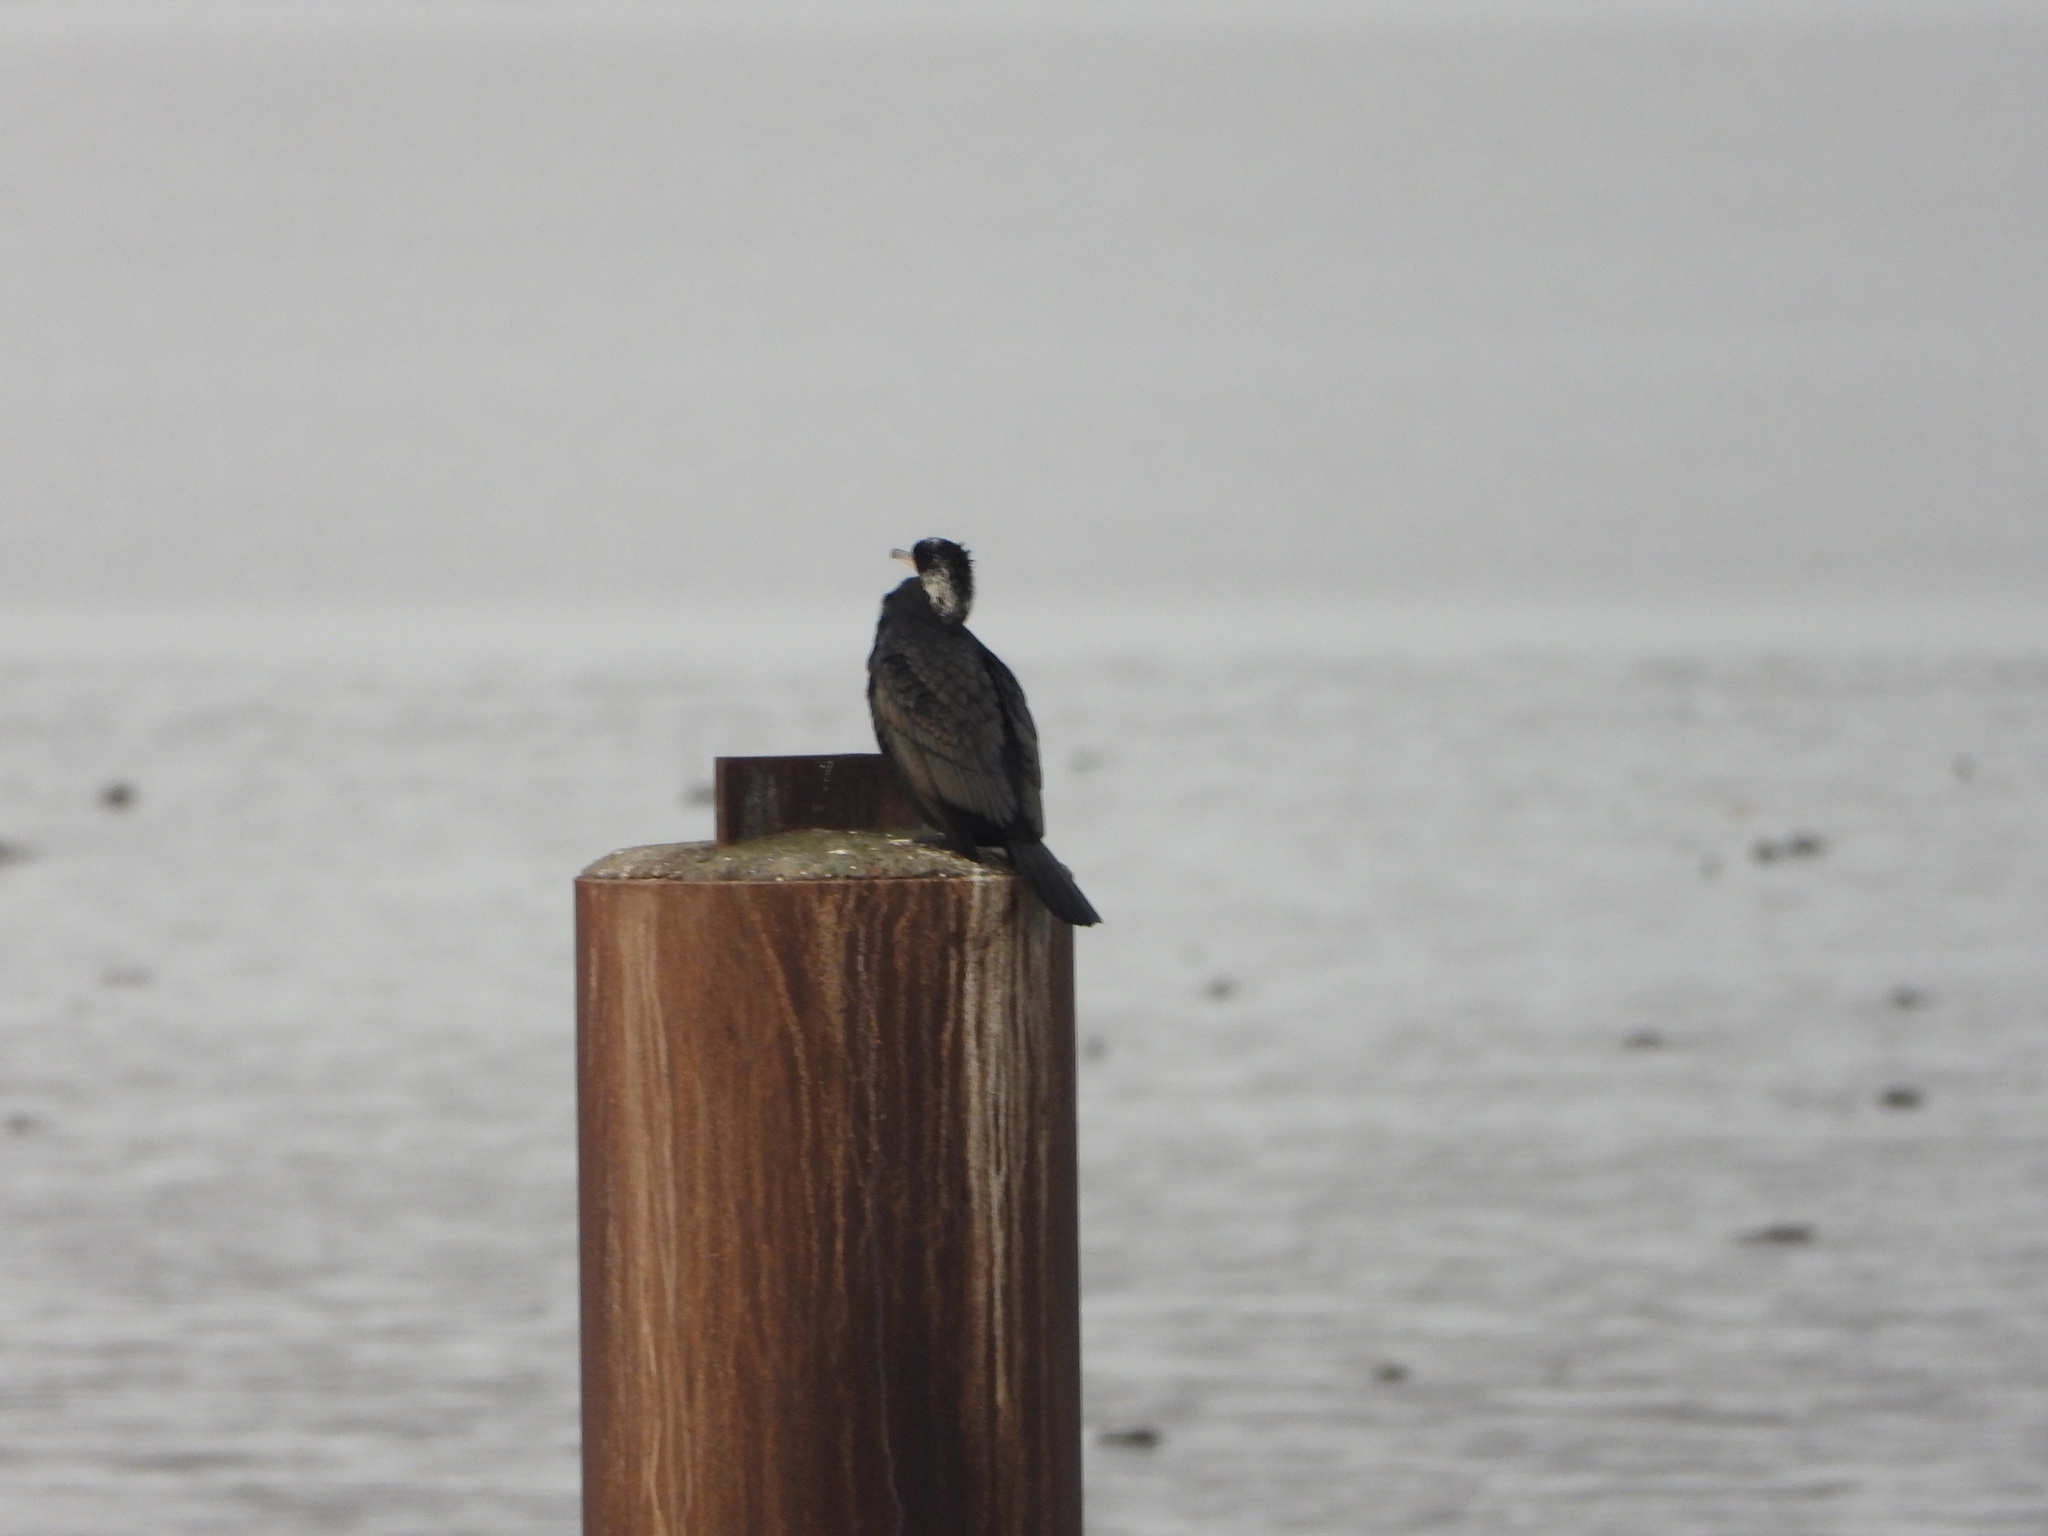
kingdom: Animalia
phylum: Chordata
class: Aves
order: Suliformes
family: Phalacrocoracidae
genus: Phalacrocorax
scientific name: Phalacrocorax carbo
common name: Great cormorant
